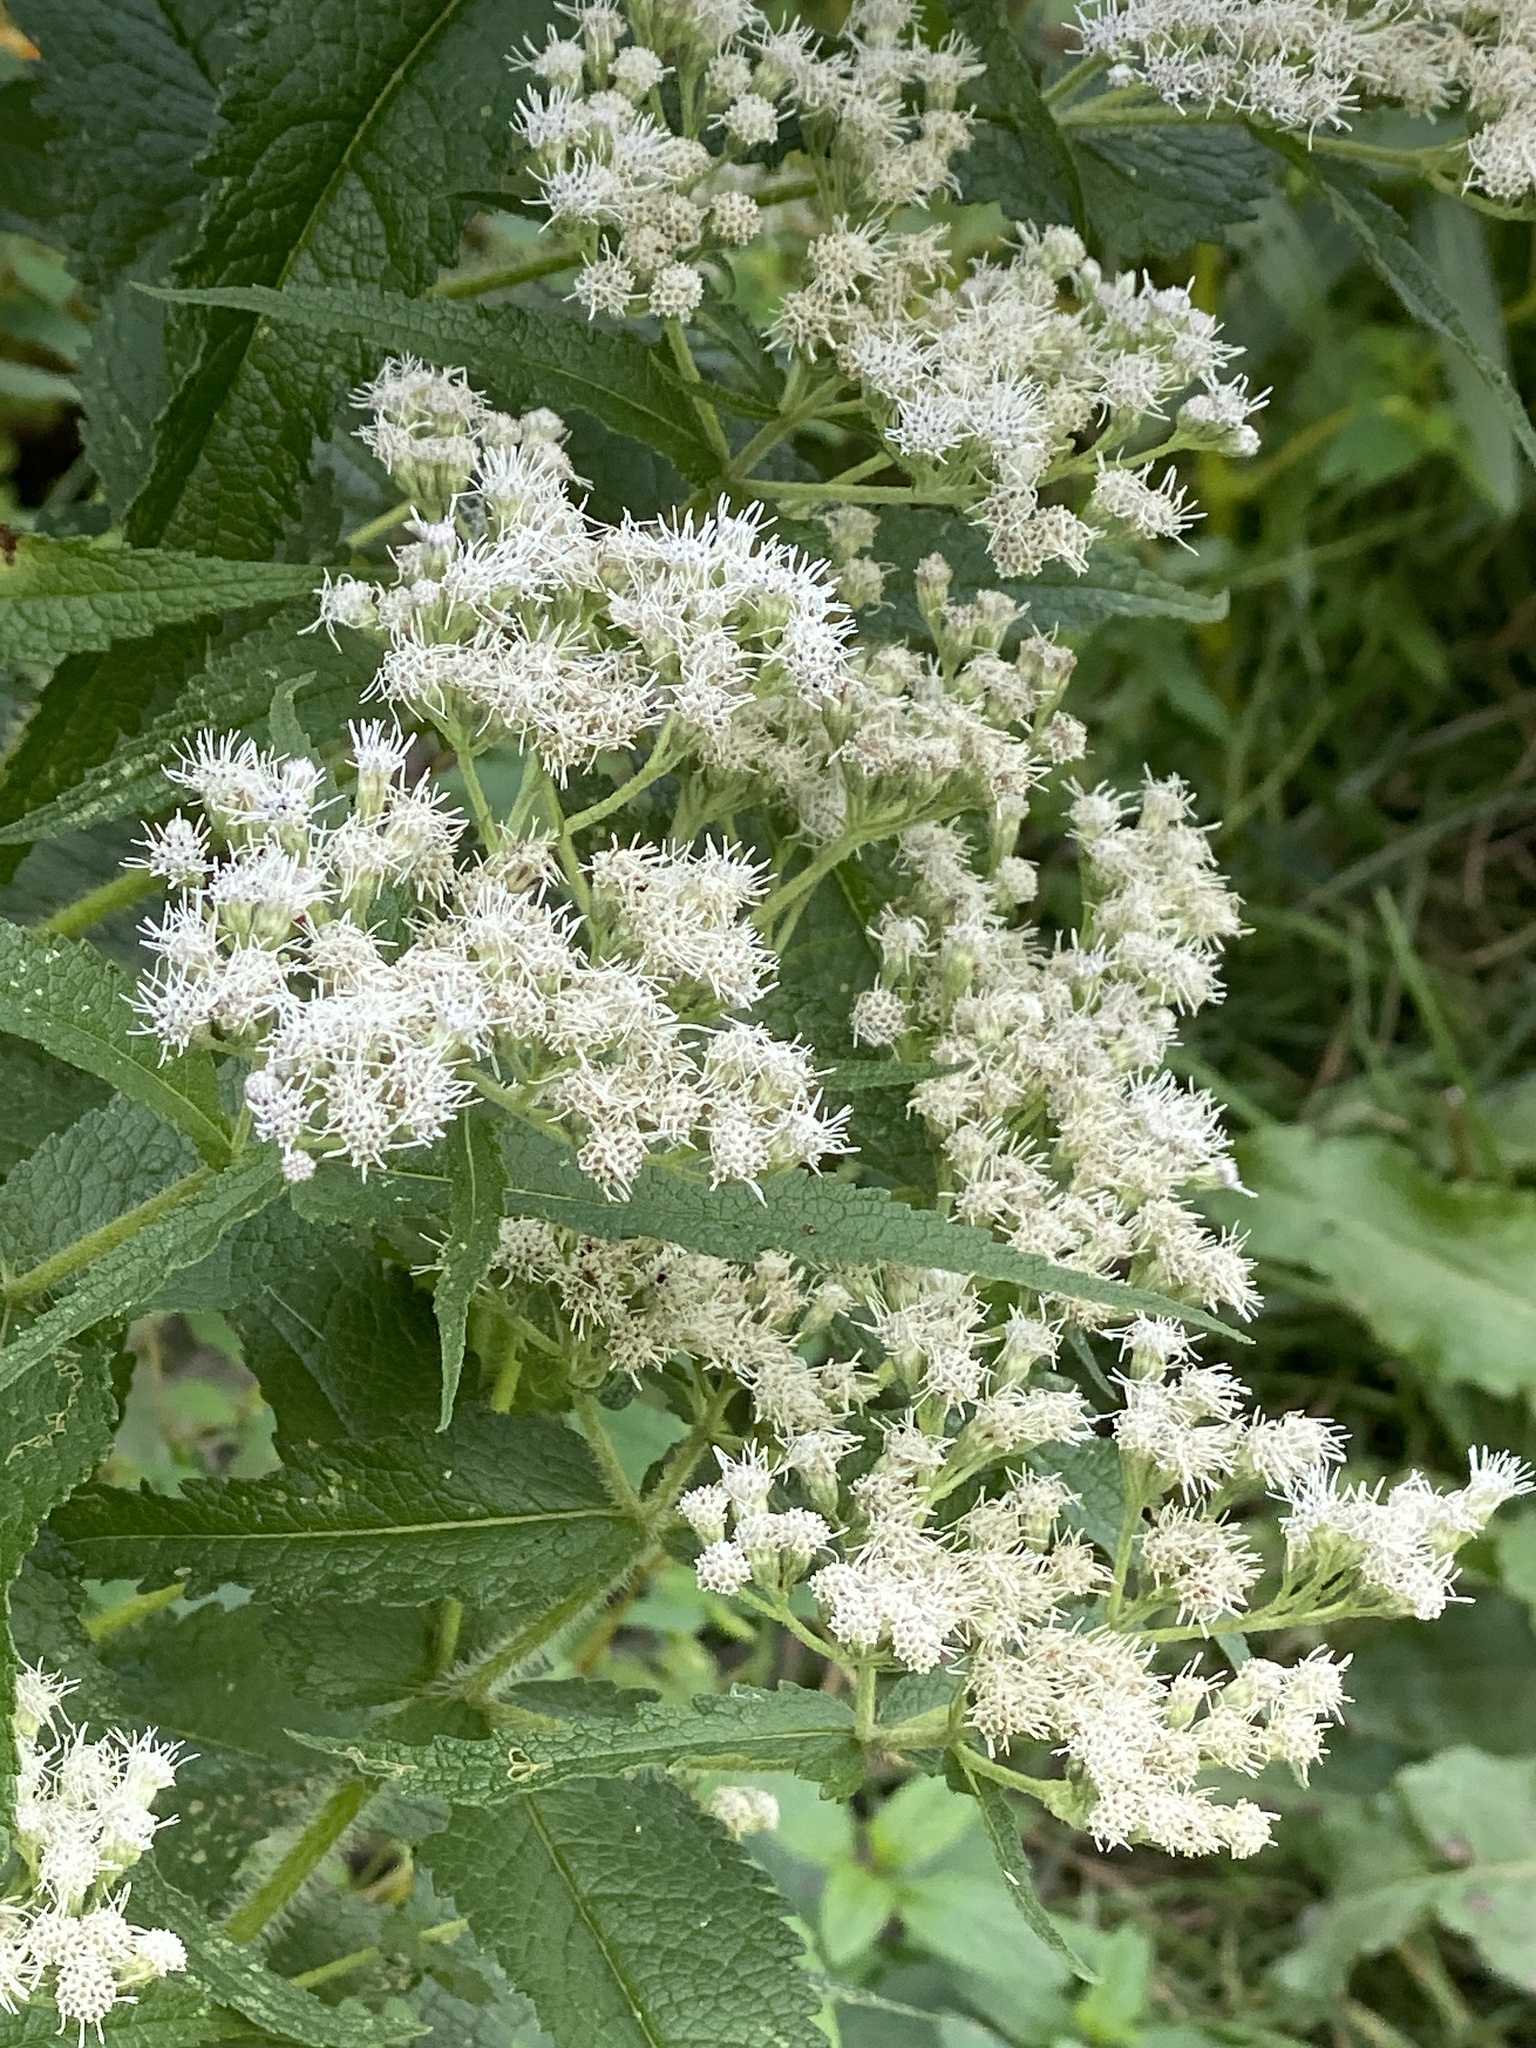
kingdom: Plantae
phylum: Tracheophyta
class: Magnoliopsida
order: Asterales
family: Asteraceae
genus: Eupatorium
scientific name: Eupatorium perfoliatum
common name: Boneset
